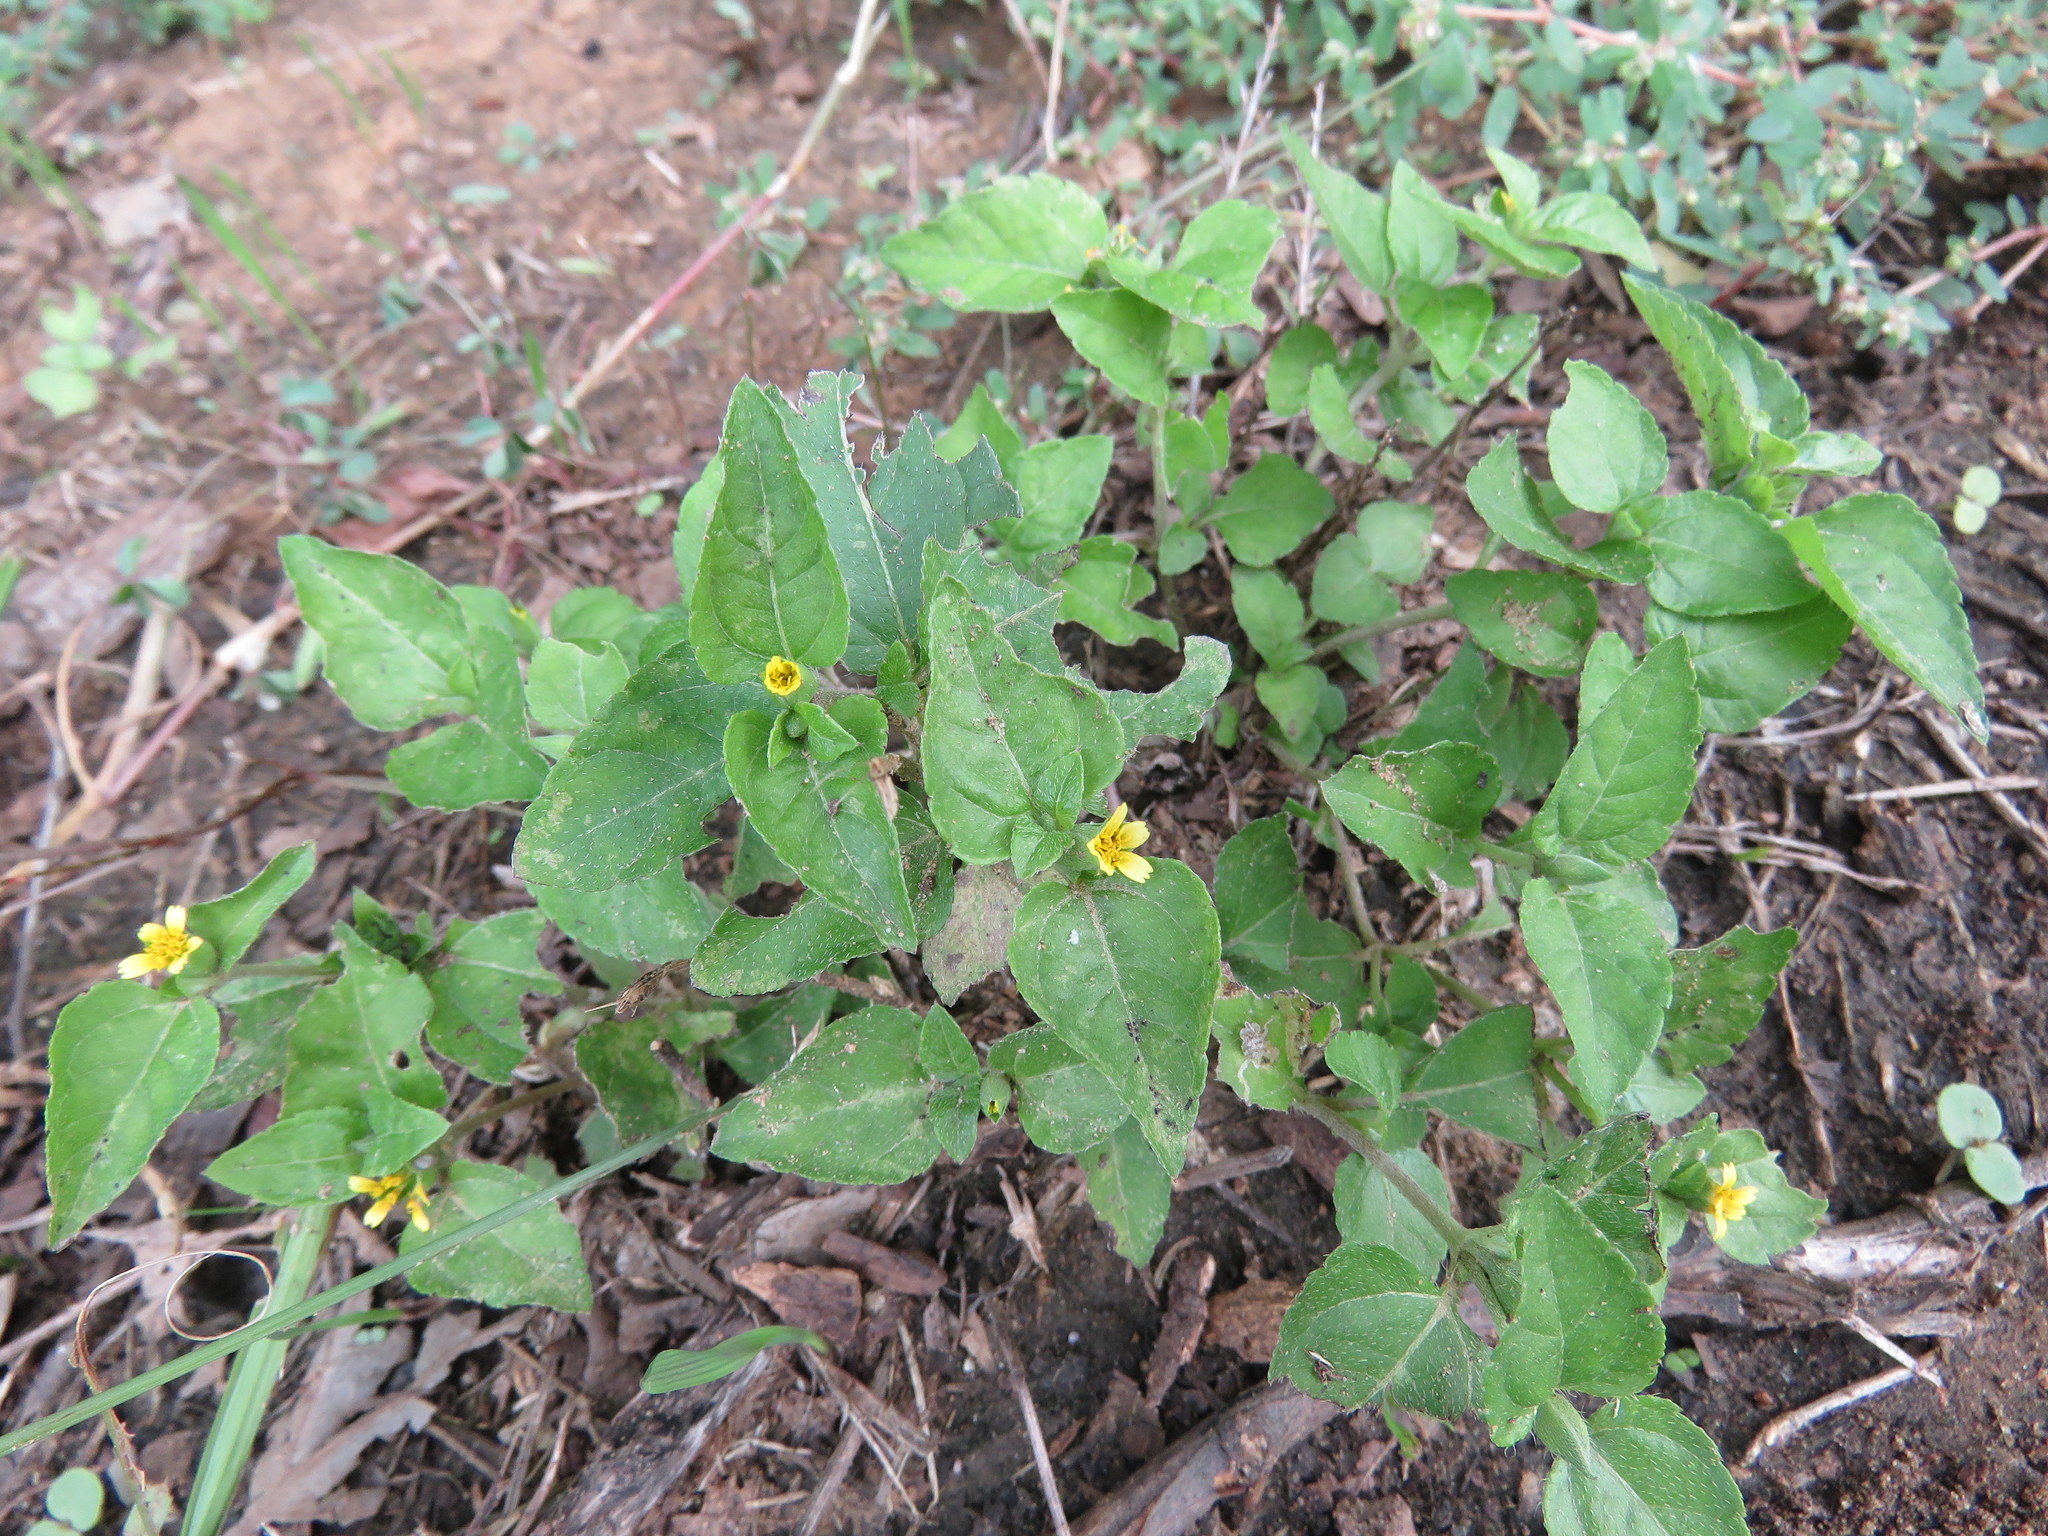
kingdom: Plantae
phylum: Tracheophyta
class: Magnoliopsida
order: Asterales
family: Asteraceae
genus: Calyptocarpus
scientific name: Calyptocarpus vialis
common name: Straggler daisy
